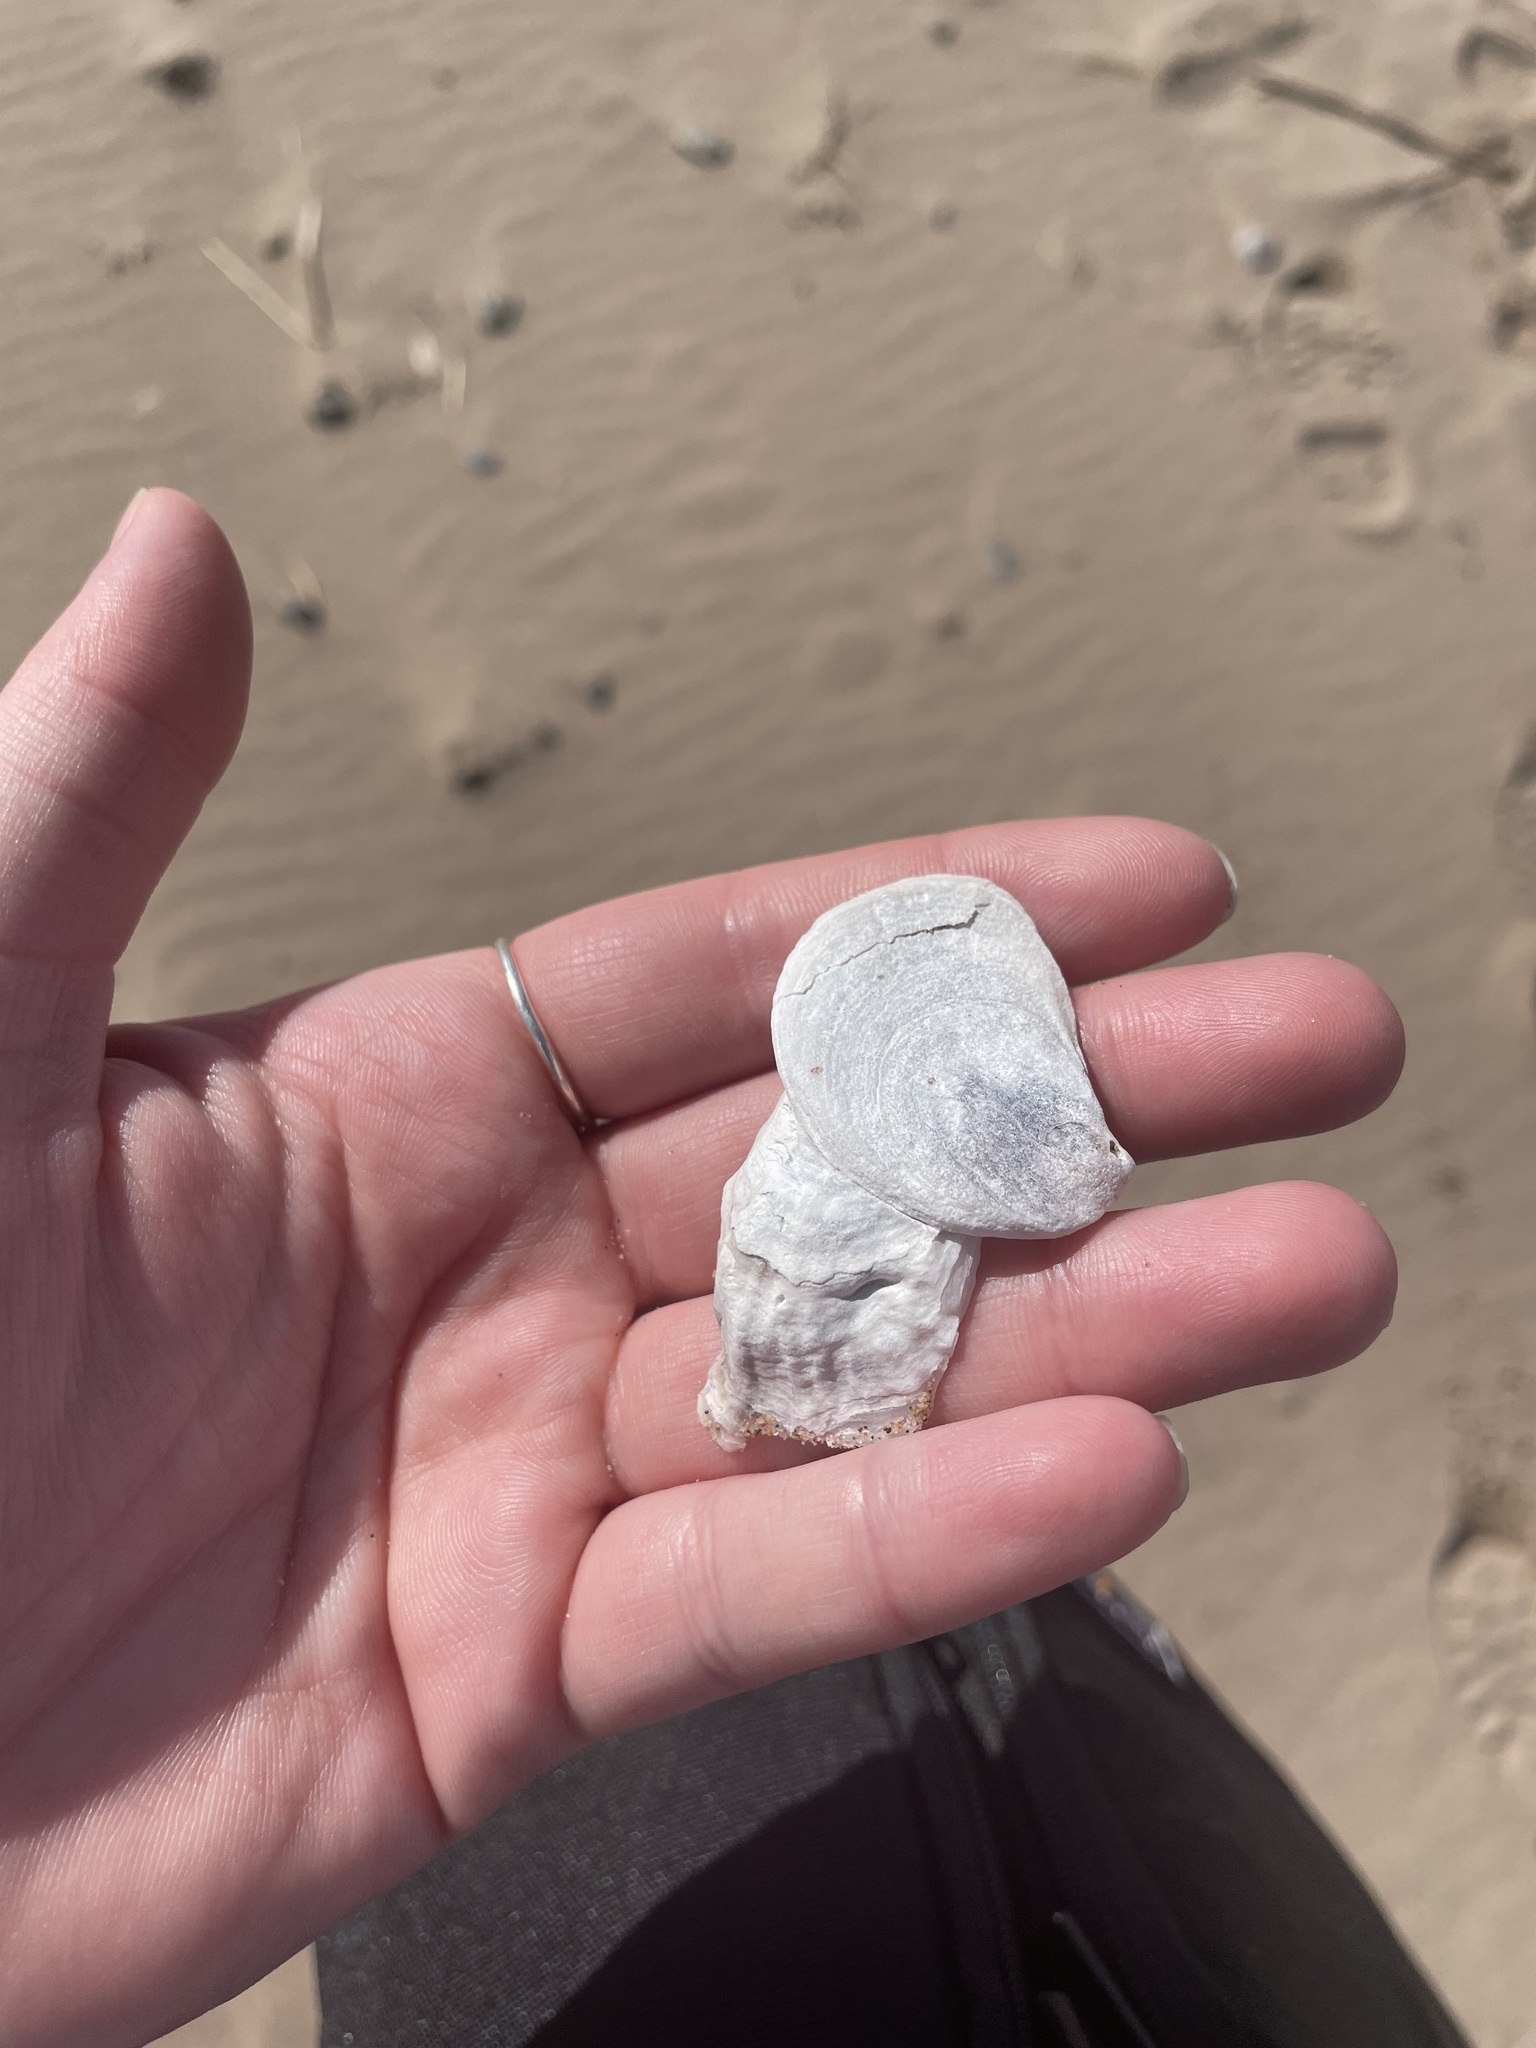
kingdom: Animalia
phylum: Mollusca
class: Bivalvia
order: Ostreida
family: Ostreidae
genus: Crassostrea
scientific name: Crassostrea virginica
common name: American oyster
